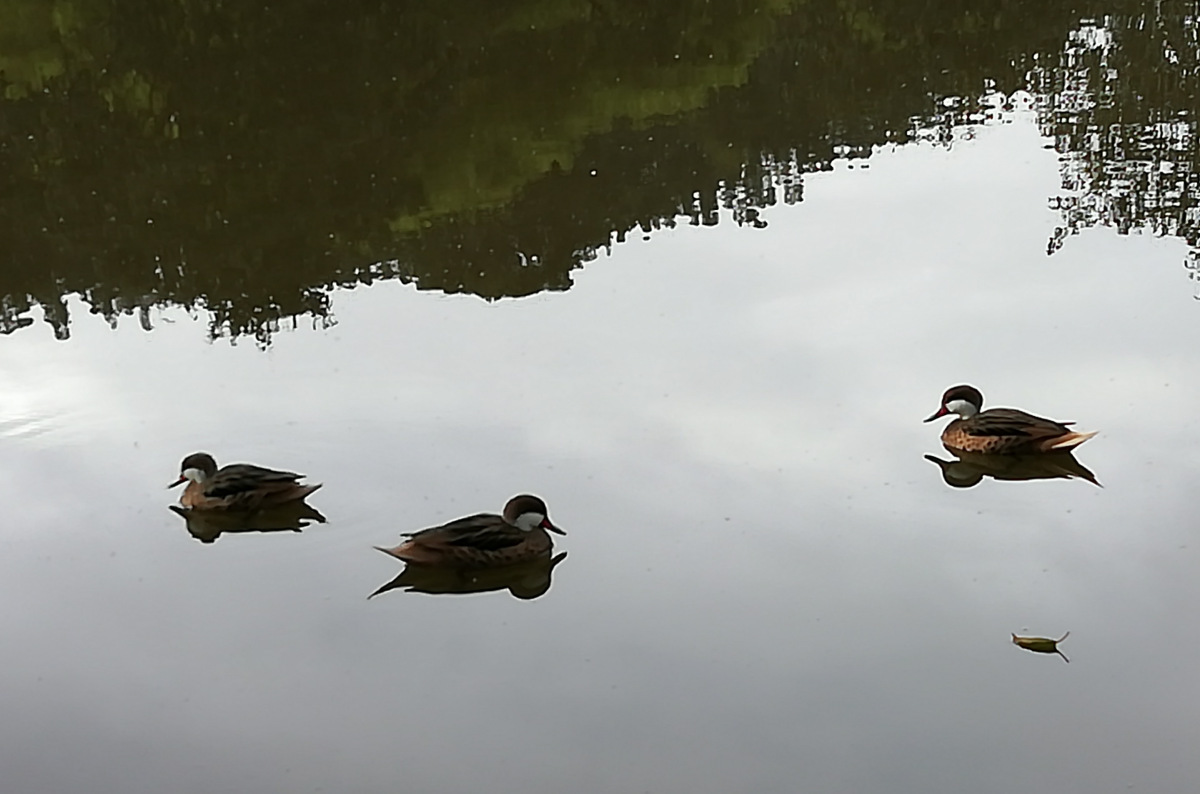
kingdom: Animalia
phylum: Chordata
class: Aves
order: Anseriformes
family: Anatidae
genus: Anas
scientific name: Anas bahamensis
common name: White-cheeked pintail
